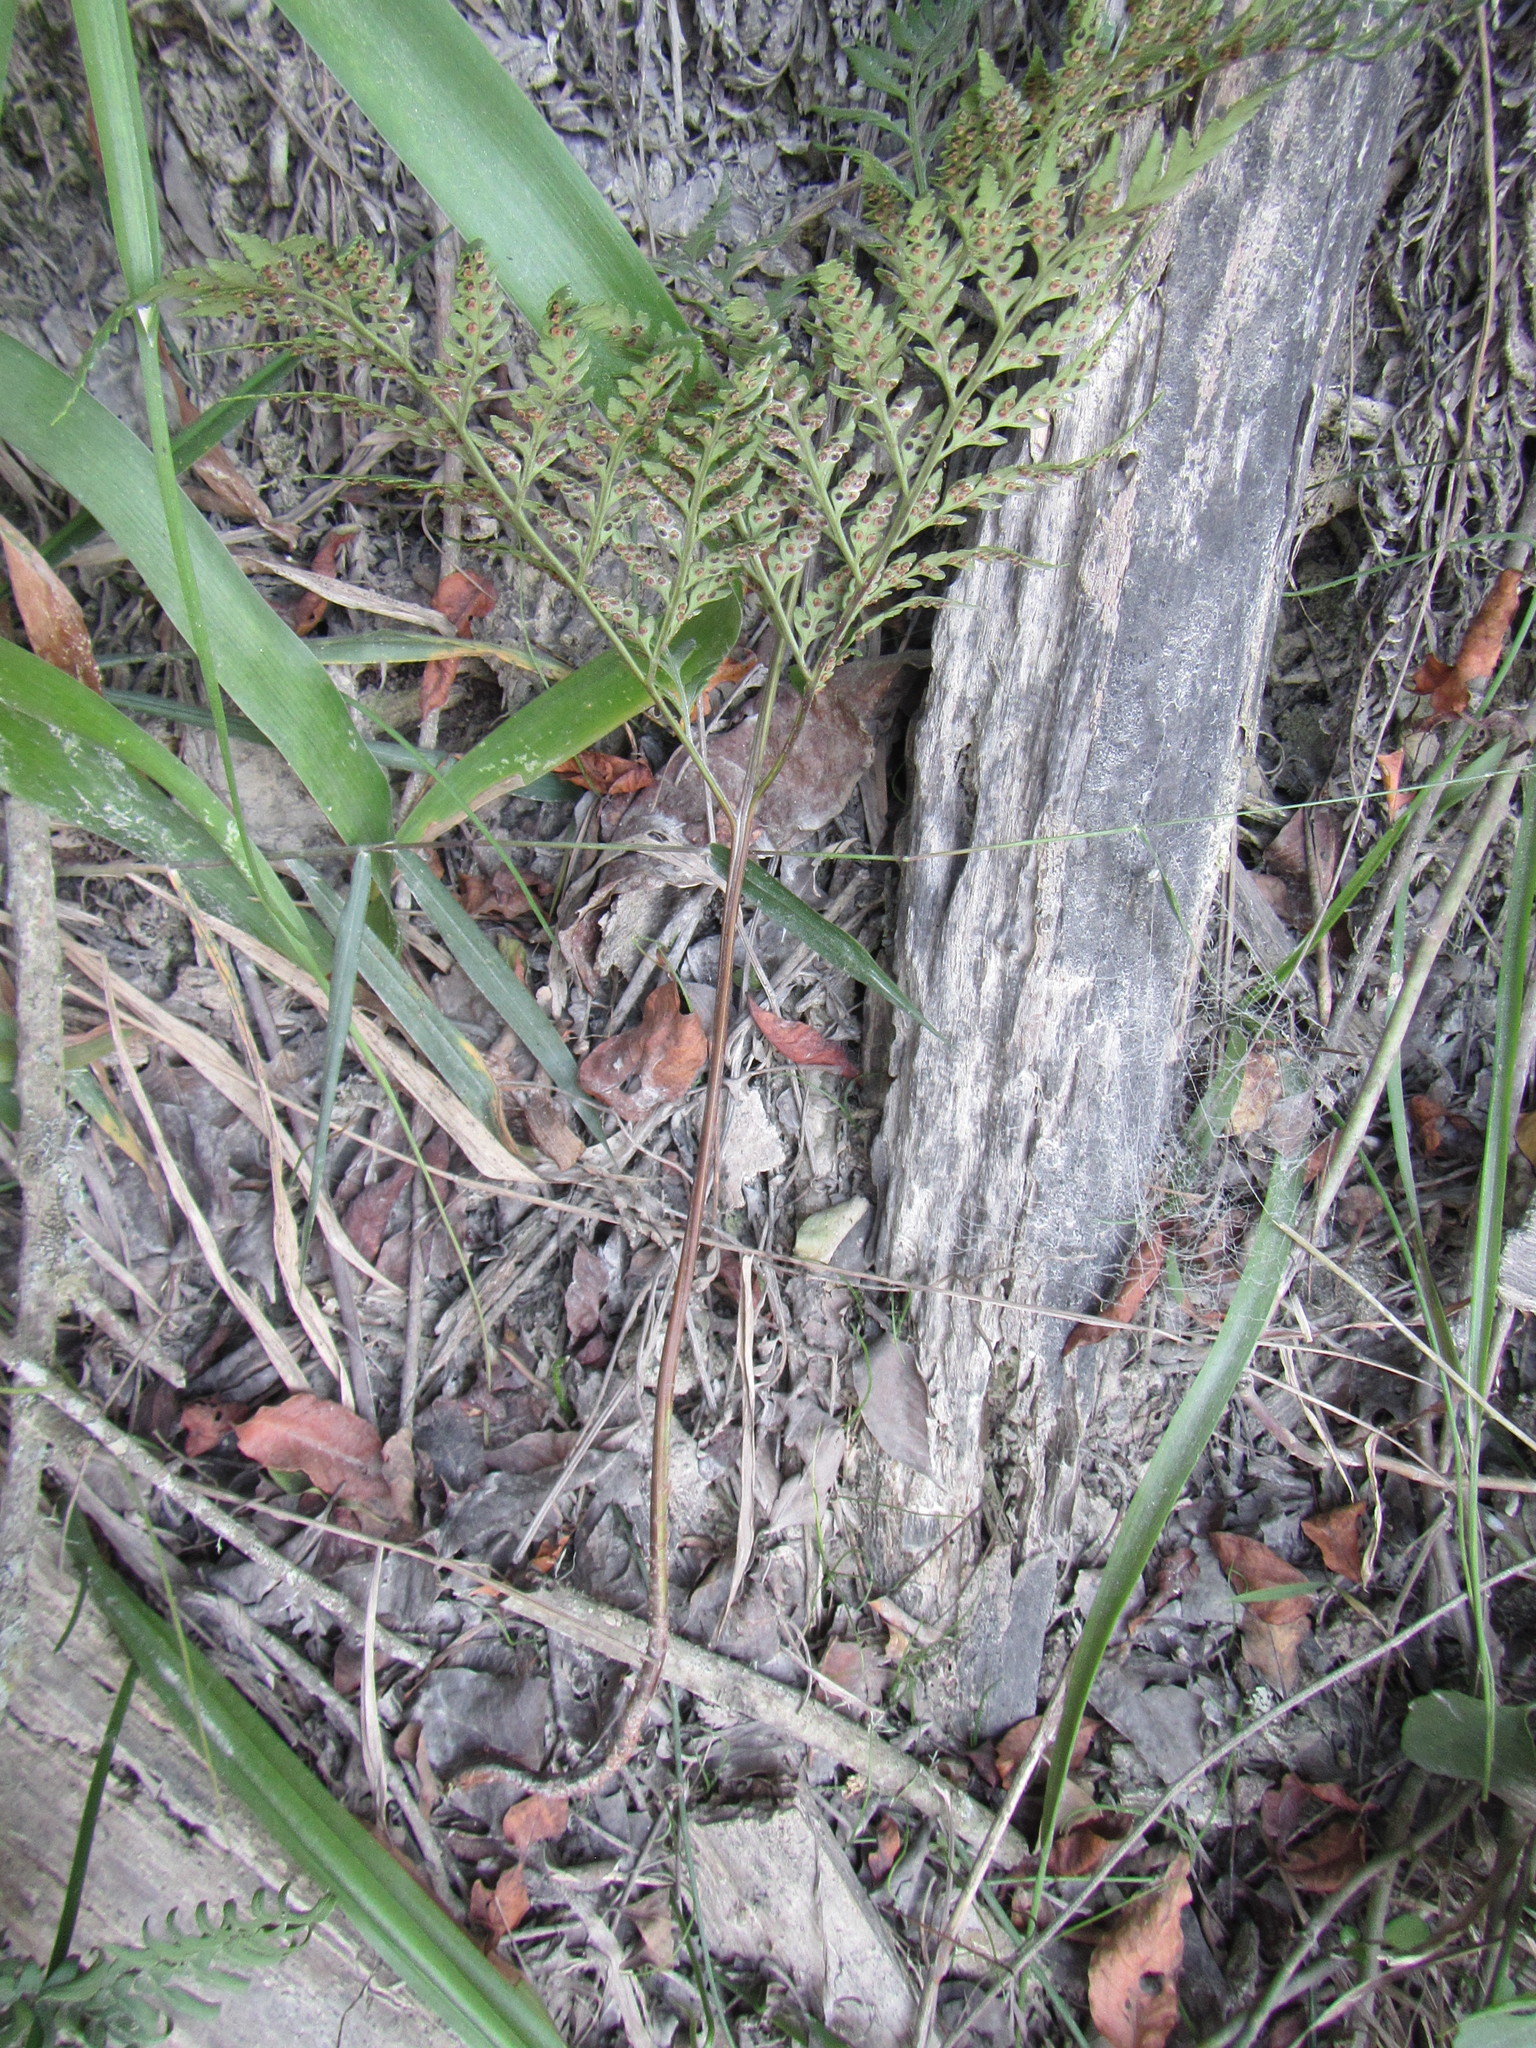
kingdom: Plantae
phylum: Tracheophyta
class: Polypodiopsida
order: Polypodiales
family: Dryopteridaceae
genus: Rumohra
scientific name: Rumohra adiantiformis
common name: Leather fern
